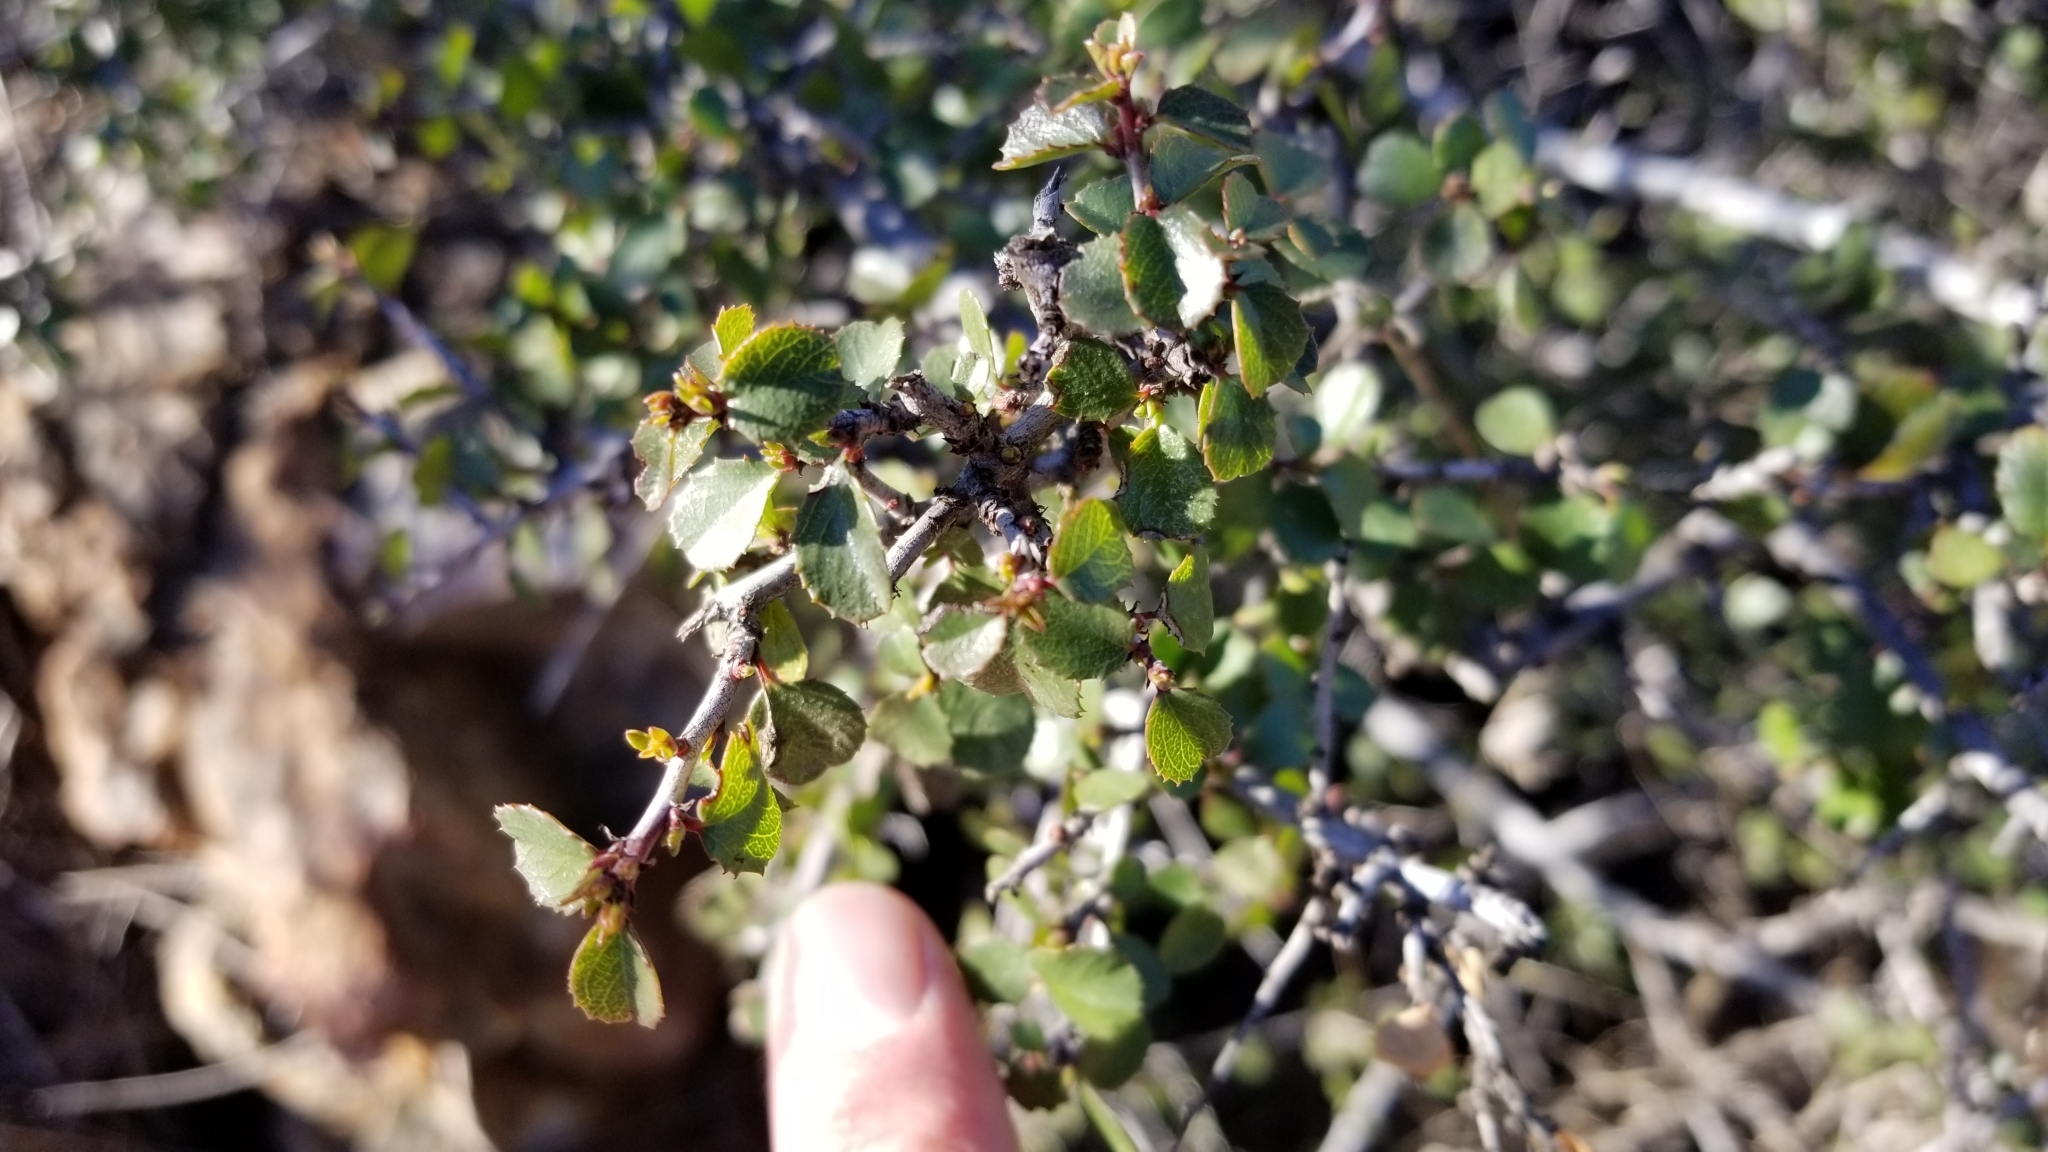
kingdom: Plantae
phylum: Tracheophyta
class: Magnoliopsida
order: Rosales
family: Rhamnaceae
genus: Endotropis
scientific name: Endotropis crocea
